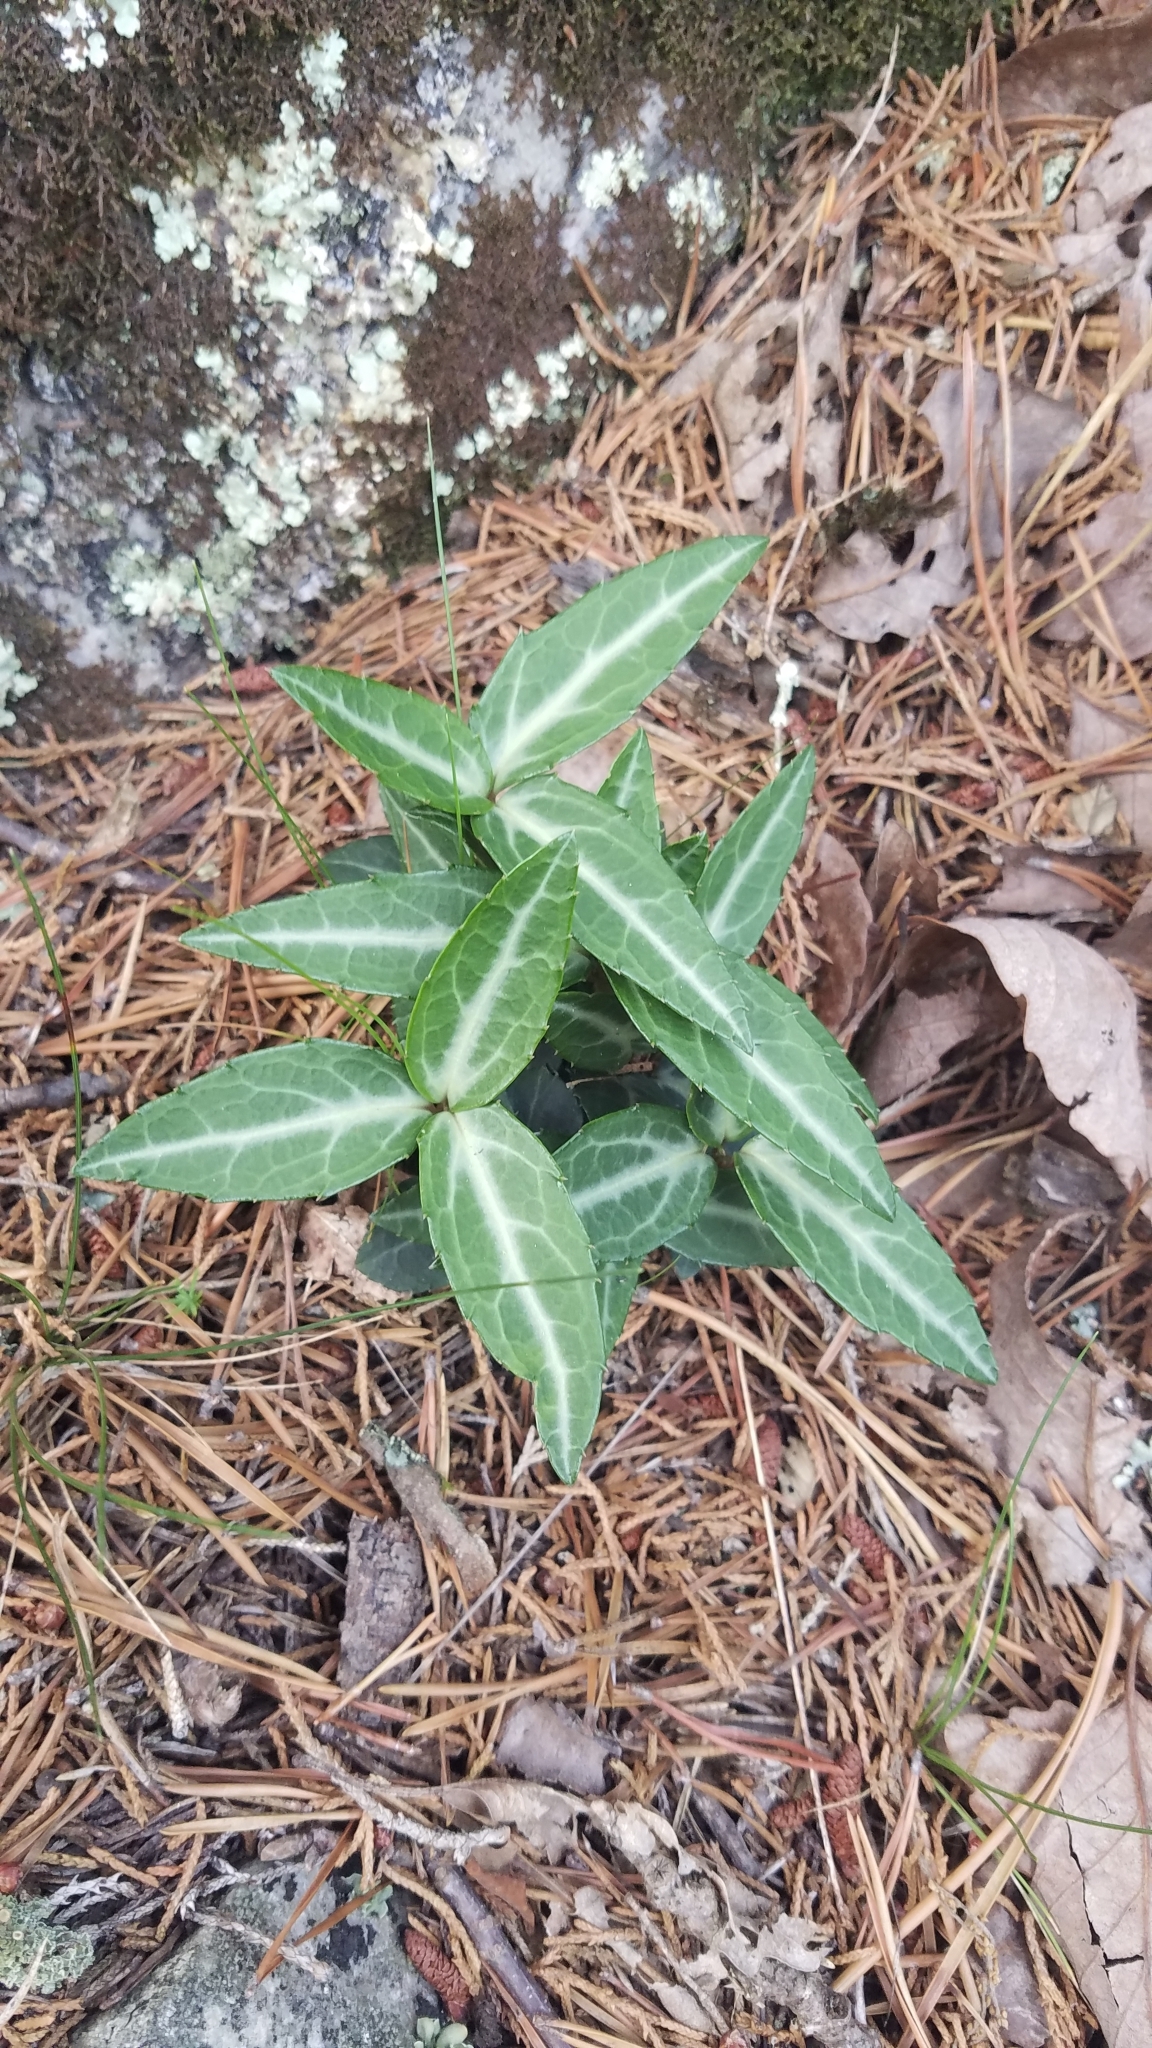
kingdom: Plantae
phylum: Tracheophyta
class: Magnoliopsida
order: Ericales
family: Ericaceae
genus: Chimaphila
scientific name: Chimaphila maculata
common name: Spotted pipsissewa
